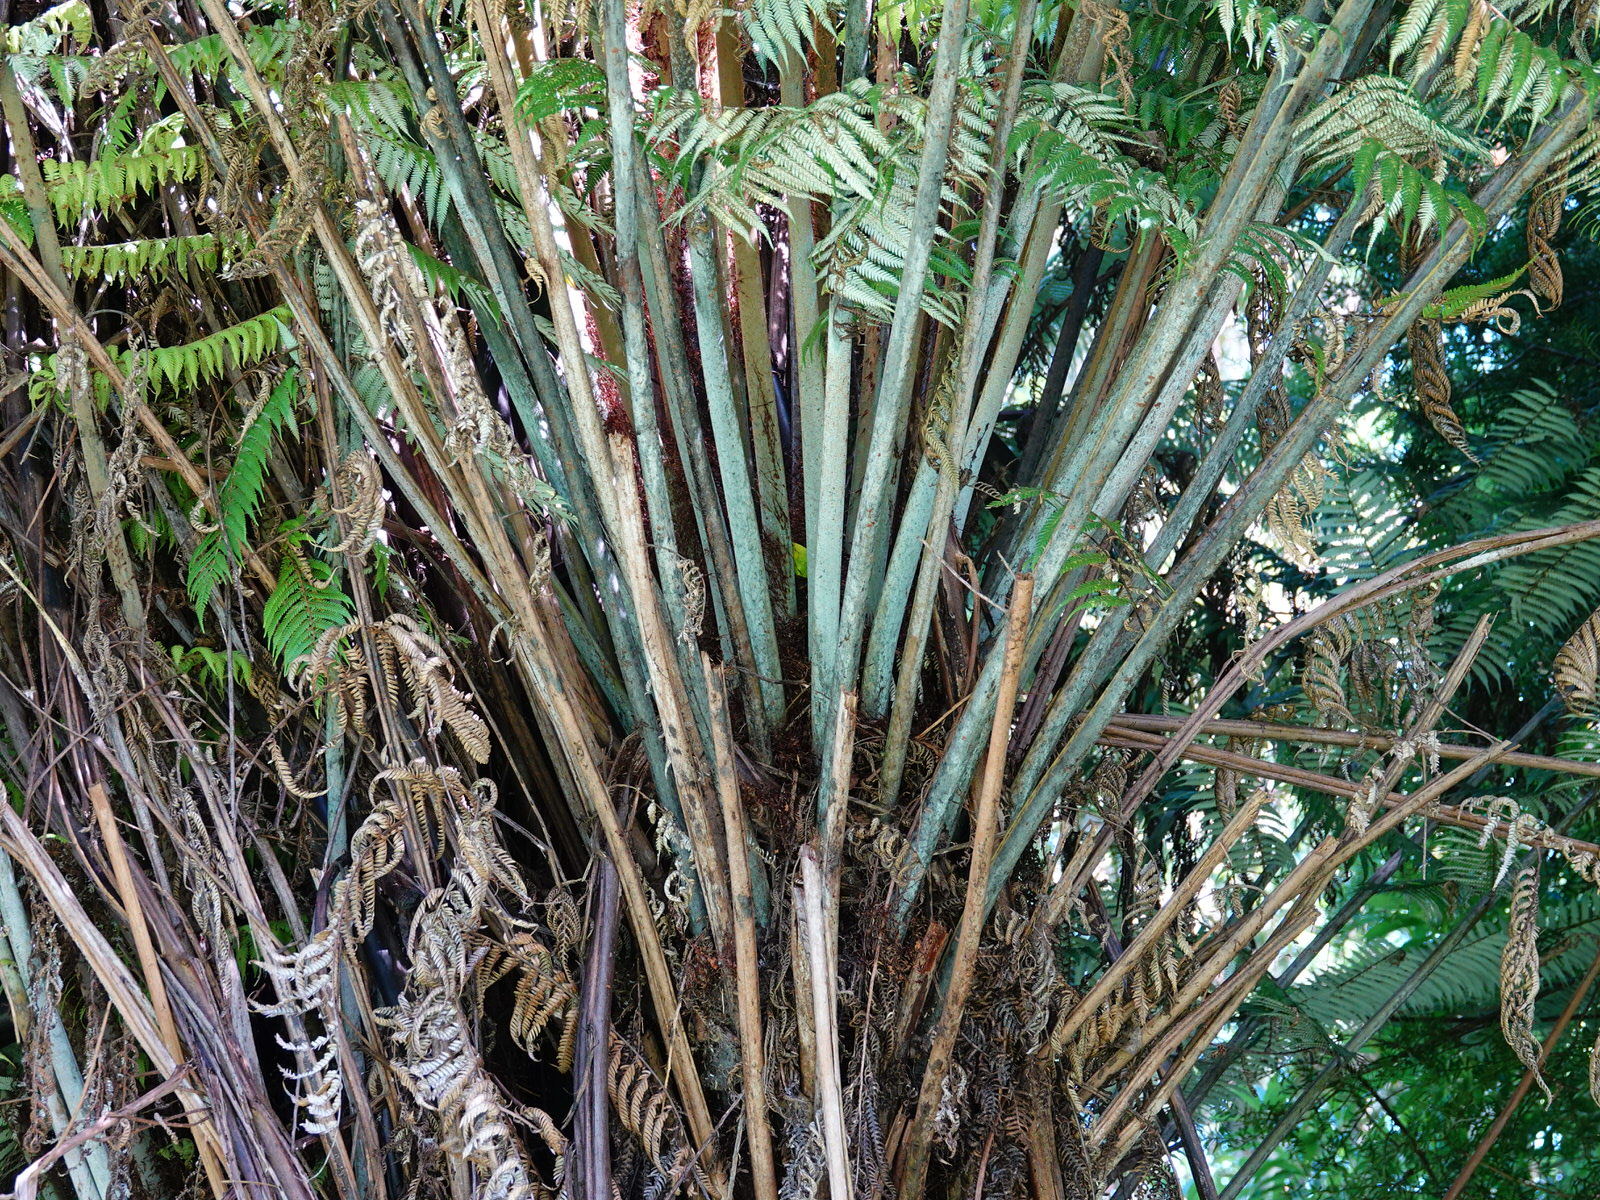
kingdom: Plantae
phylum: Tracheophyta
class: Polypodiopsida
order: Cyatheales
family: Cyatheaceae
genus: Alsophila
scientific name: Alsophila dealbata
